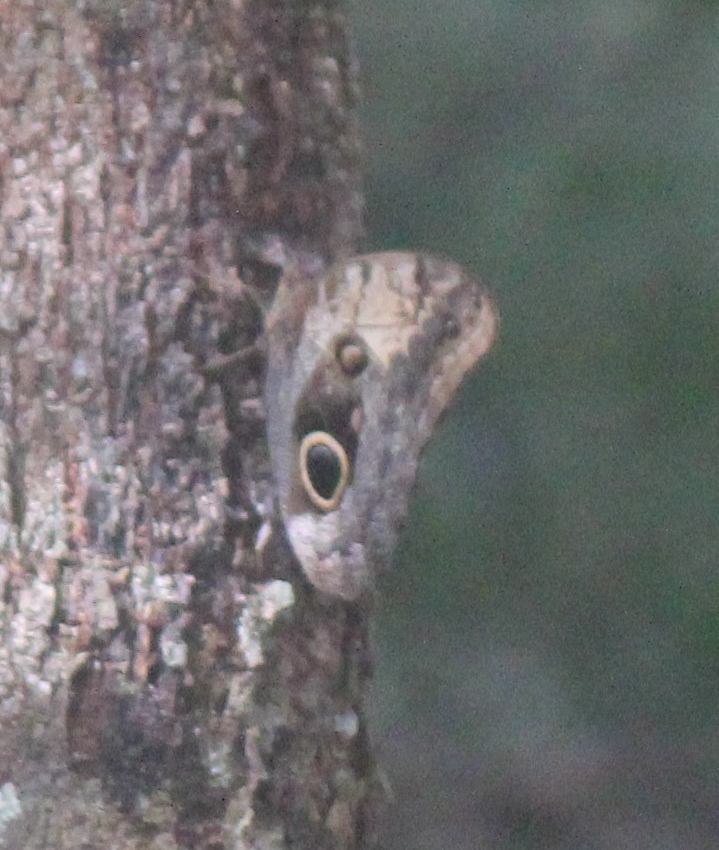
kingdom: Animalia
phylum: Arthropoda
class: Insecta
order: Lepidoptera
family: Nymphalidae
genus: Caligo
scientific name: Caligo telamonius
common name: Pale owl-butterfly
